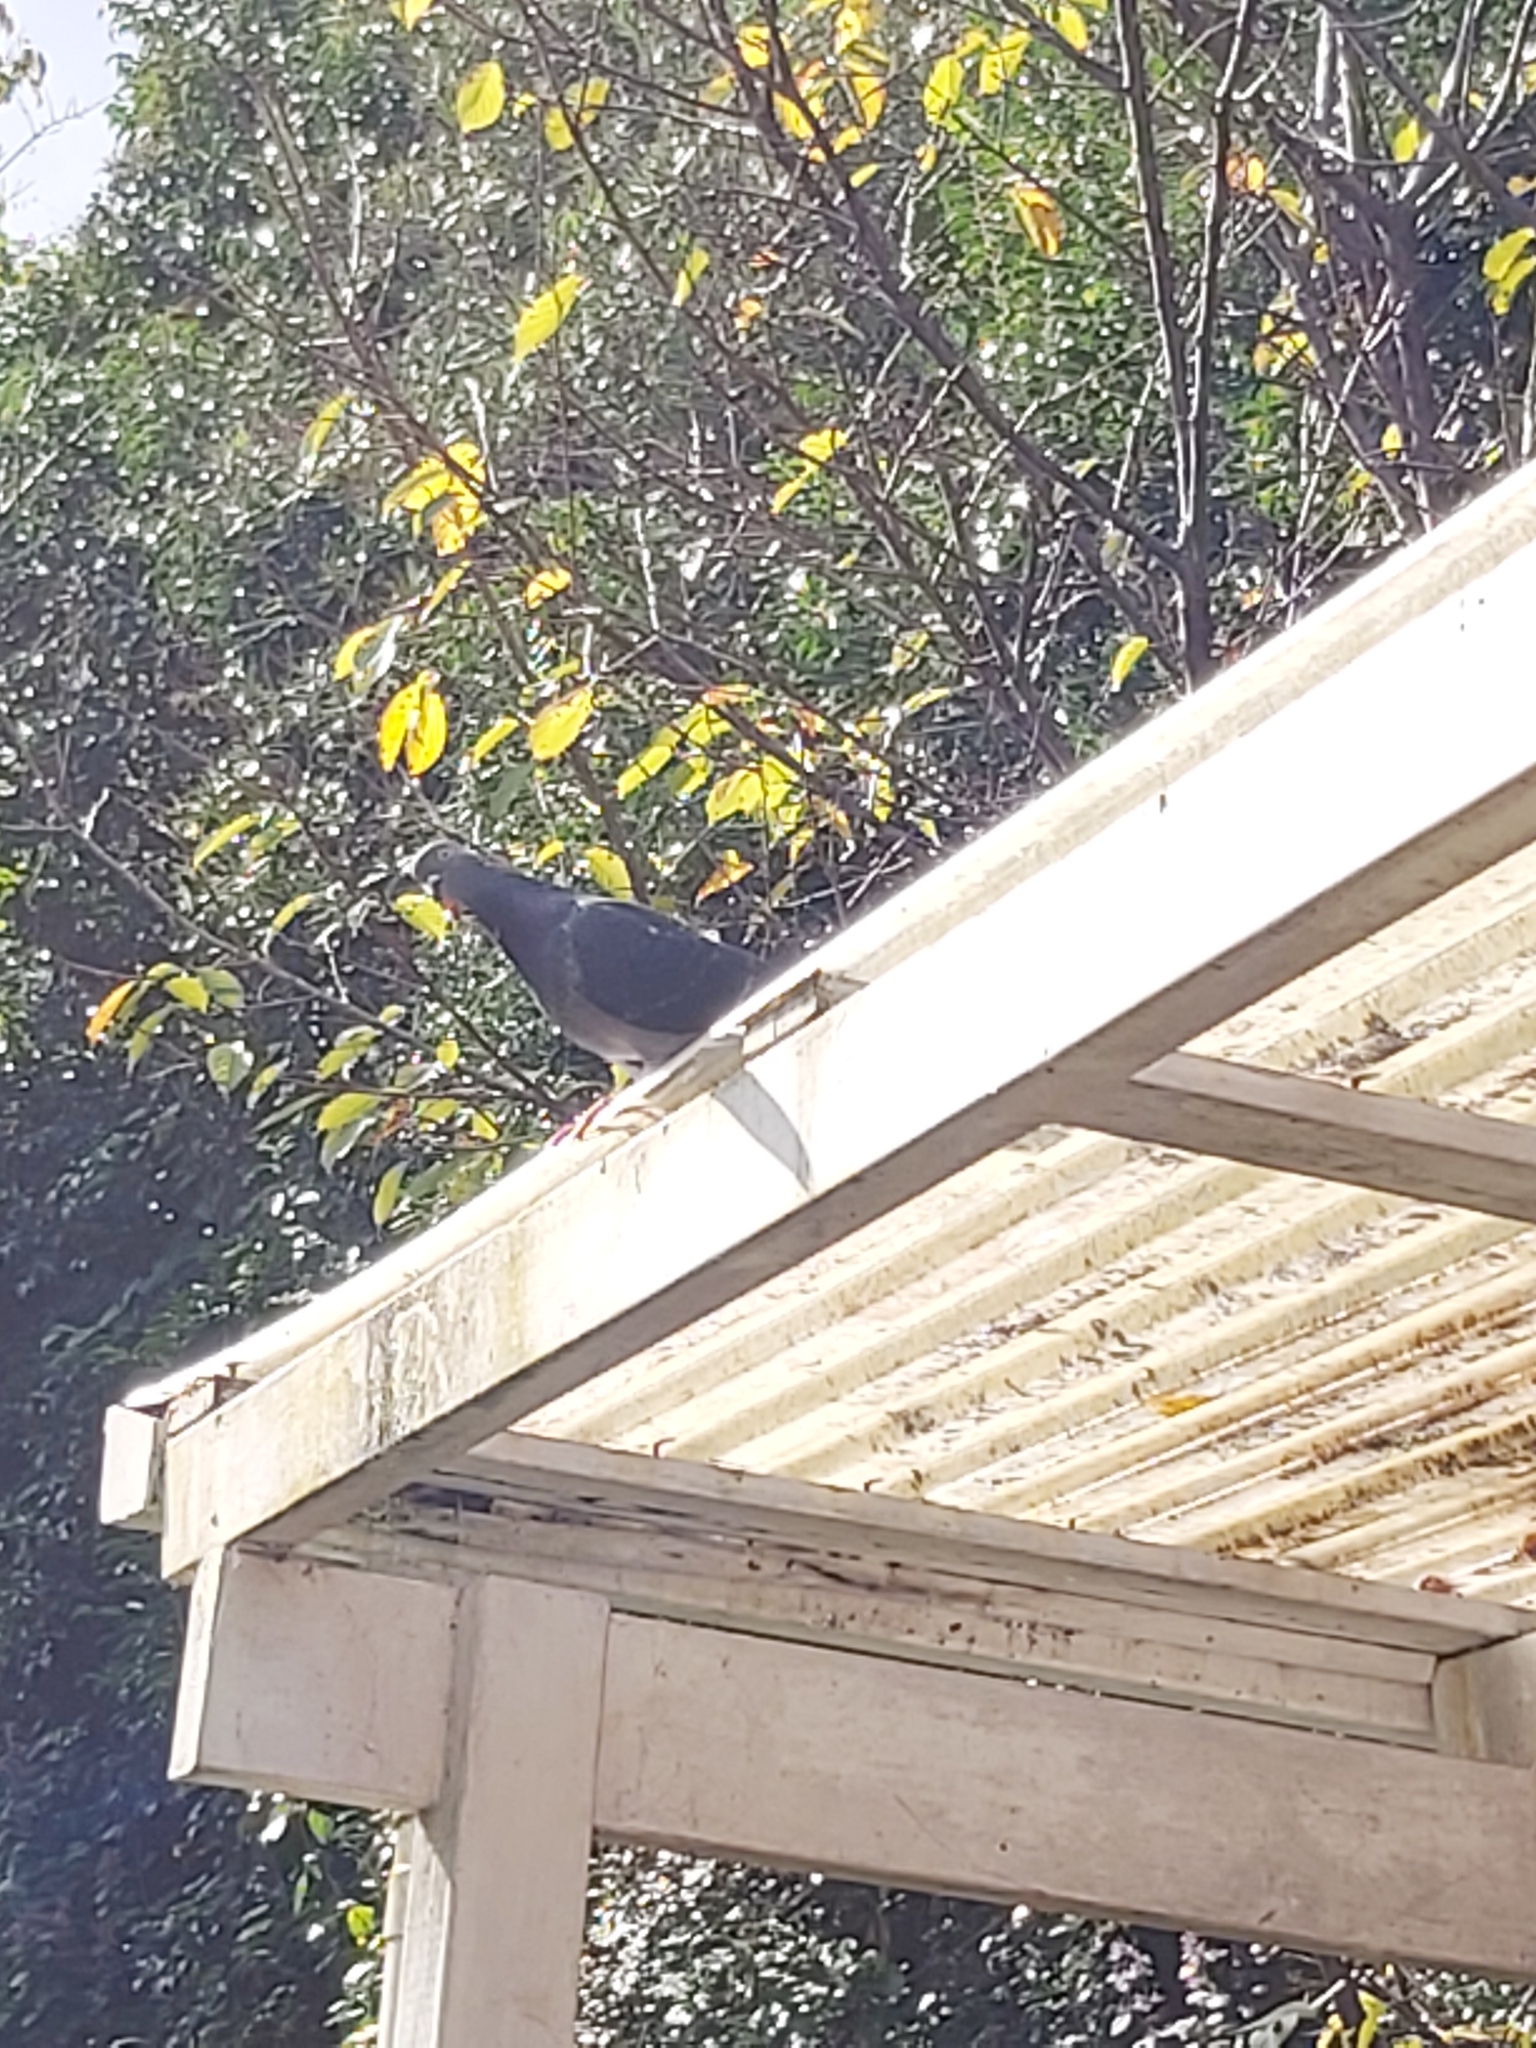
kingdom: Animalia
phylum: Chordata
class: Aves
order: Columbiformes
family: Columbidae
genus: Columba
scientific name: Columba livia
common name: Rock pigeon
